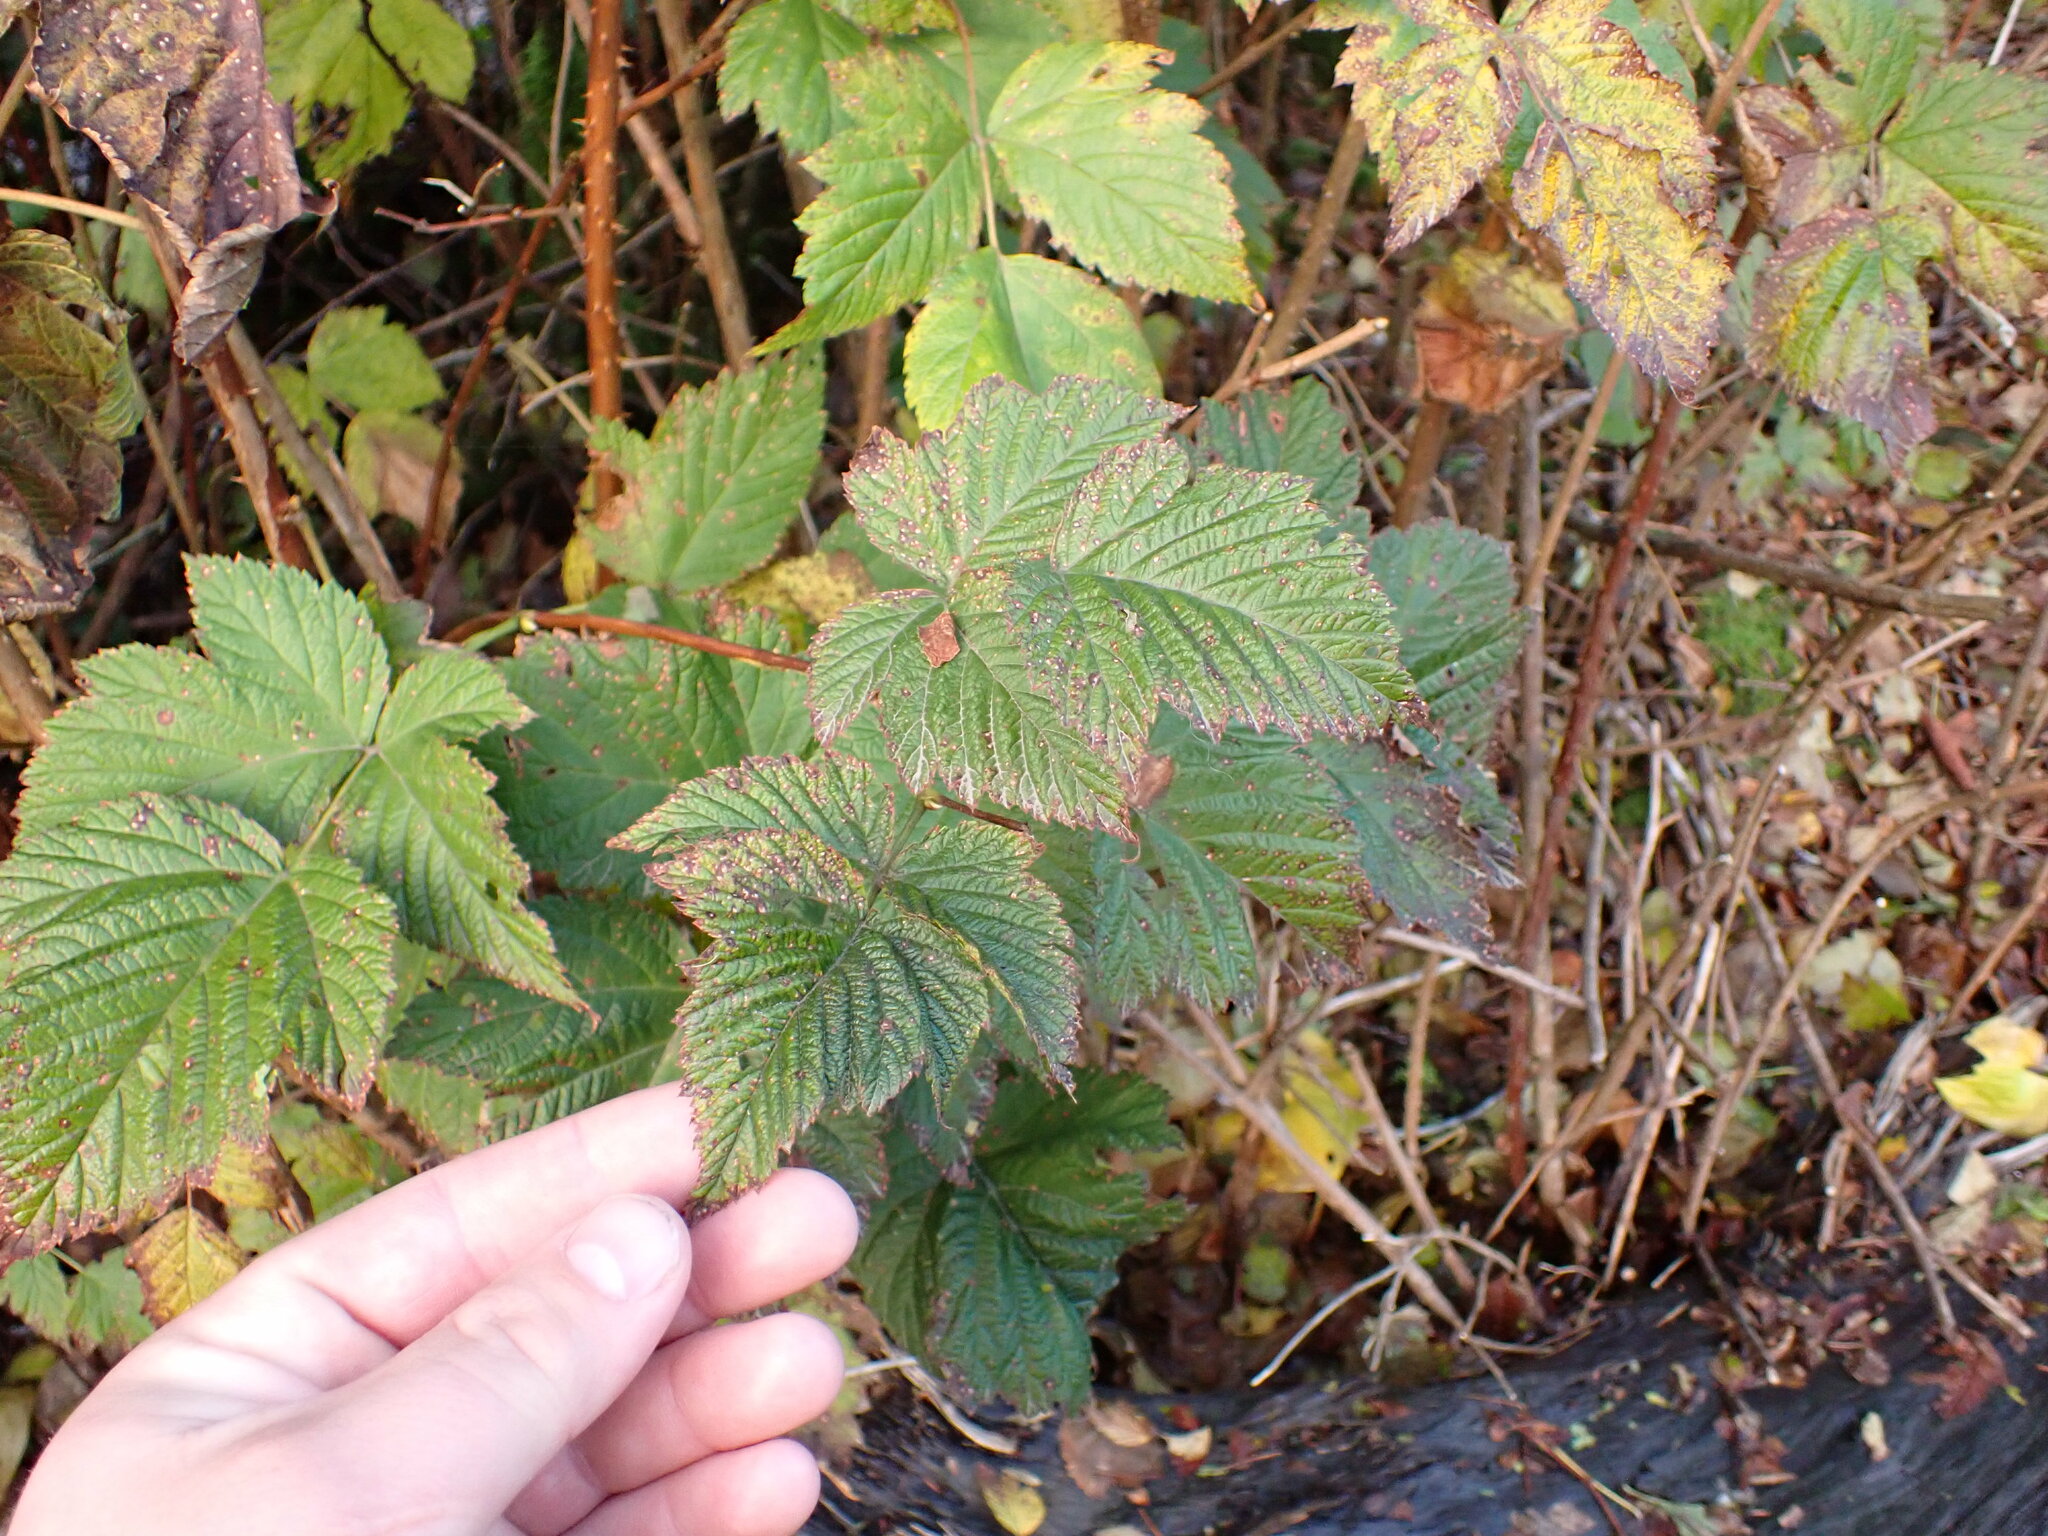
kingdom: Plantae
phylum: Tracheophyta
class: Magnoliopsida
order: Rosales
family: Rosaceae
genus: Rubus
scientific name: Rubus spectabilis
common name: Salmonberry
